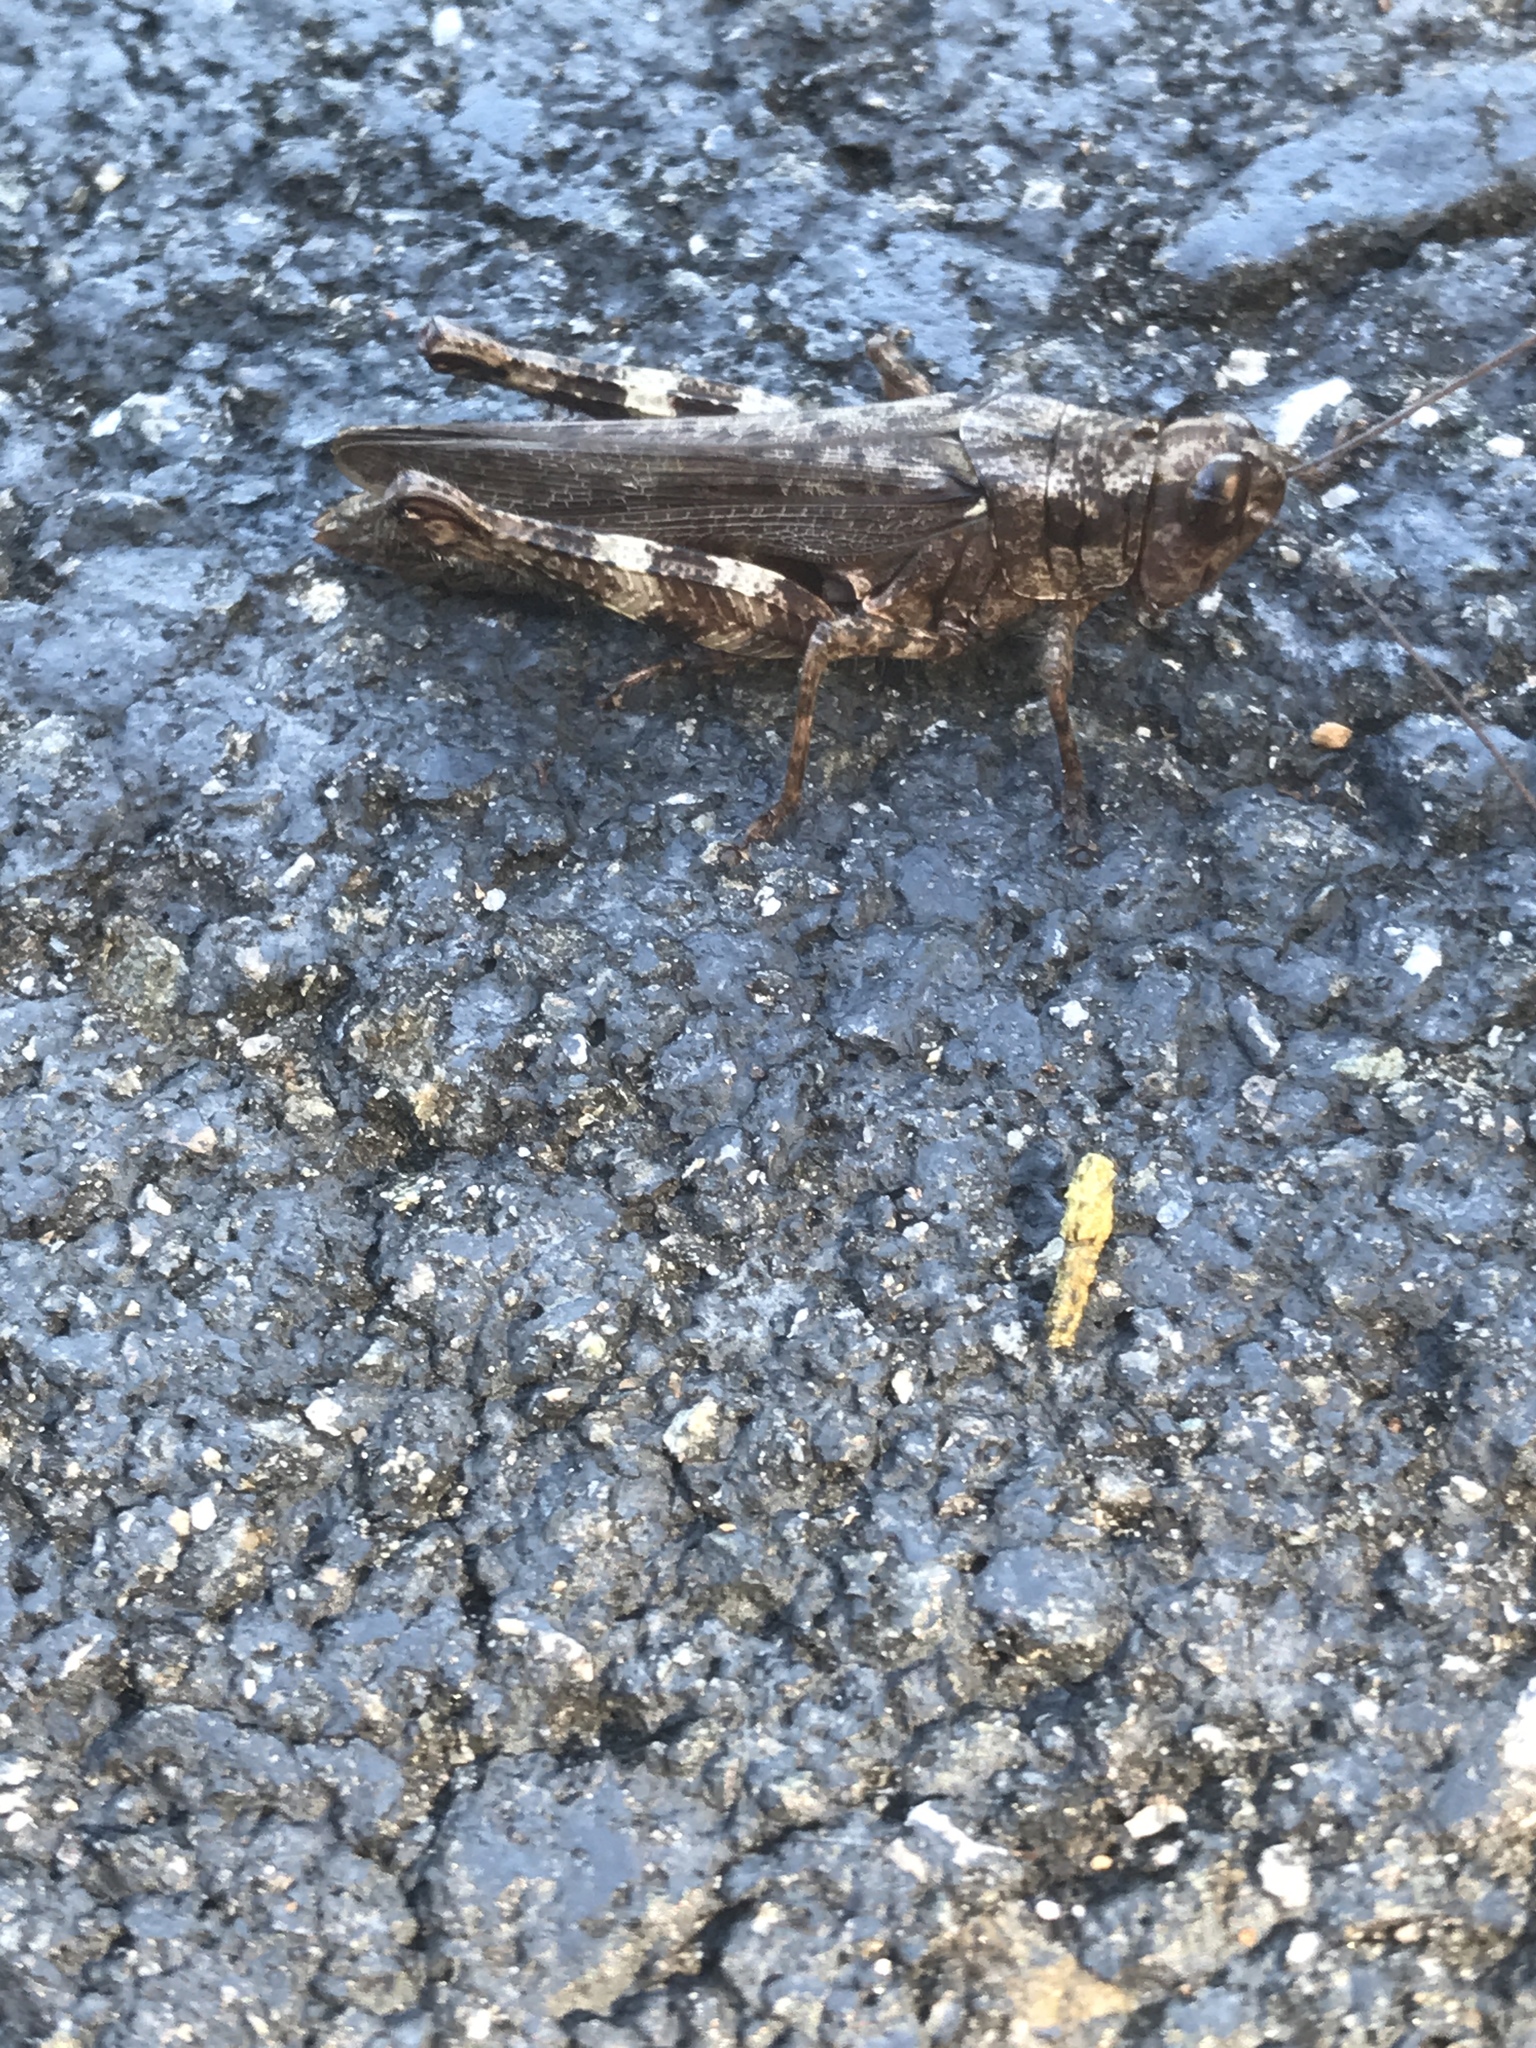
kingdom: Animalia
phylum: Arthropoda
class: Insecta
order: Orthoptera
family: Acrididae
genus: Melanoplus
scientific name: Melanoplus punctulatus
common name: Pine-tree spur-throat grasshopper
